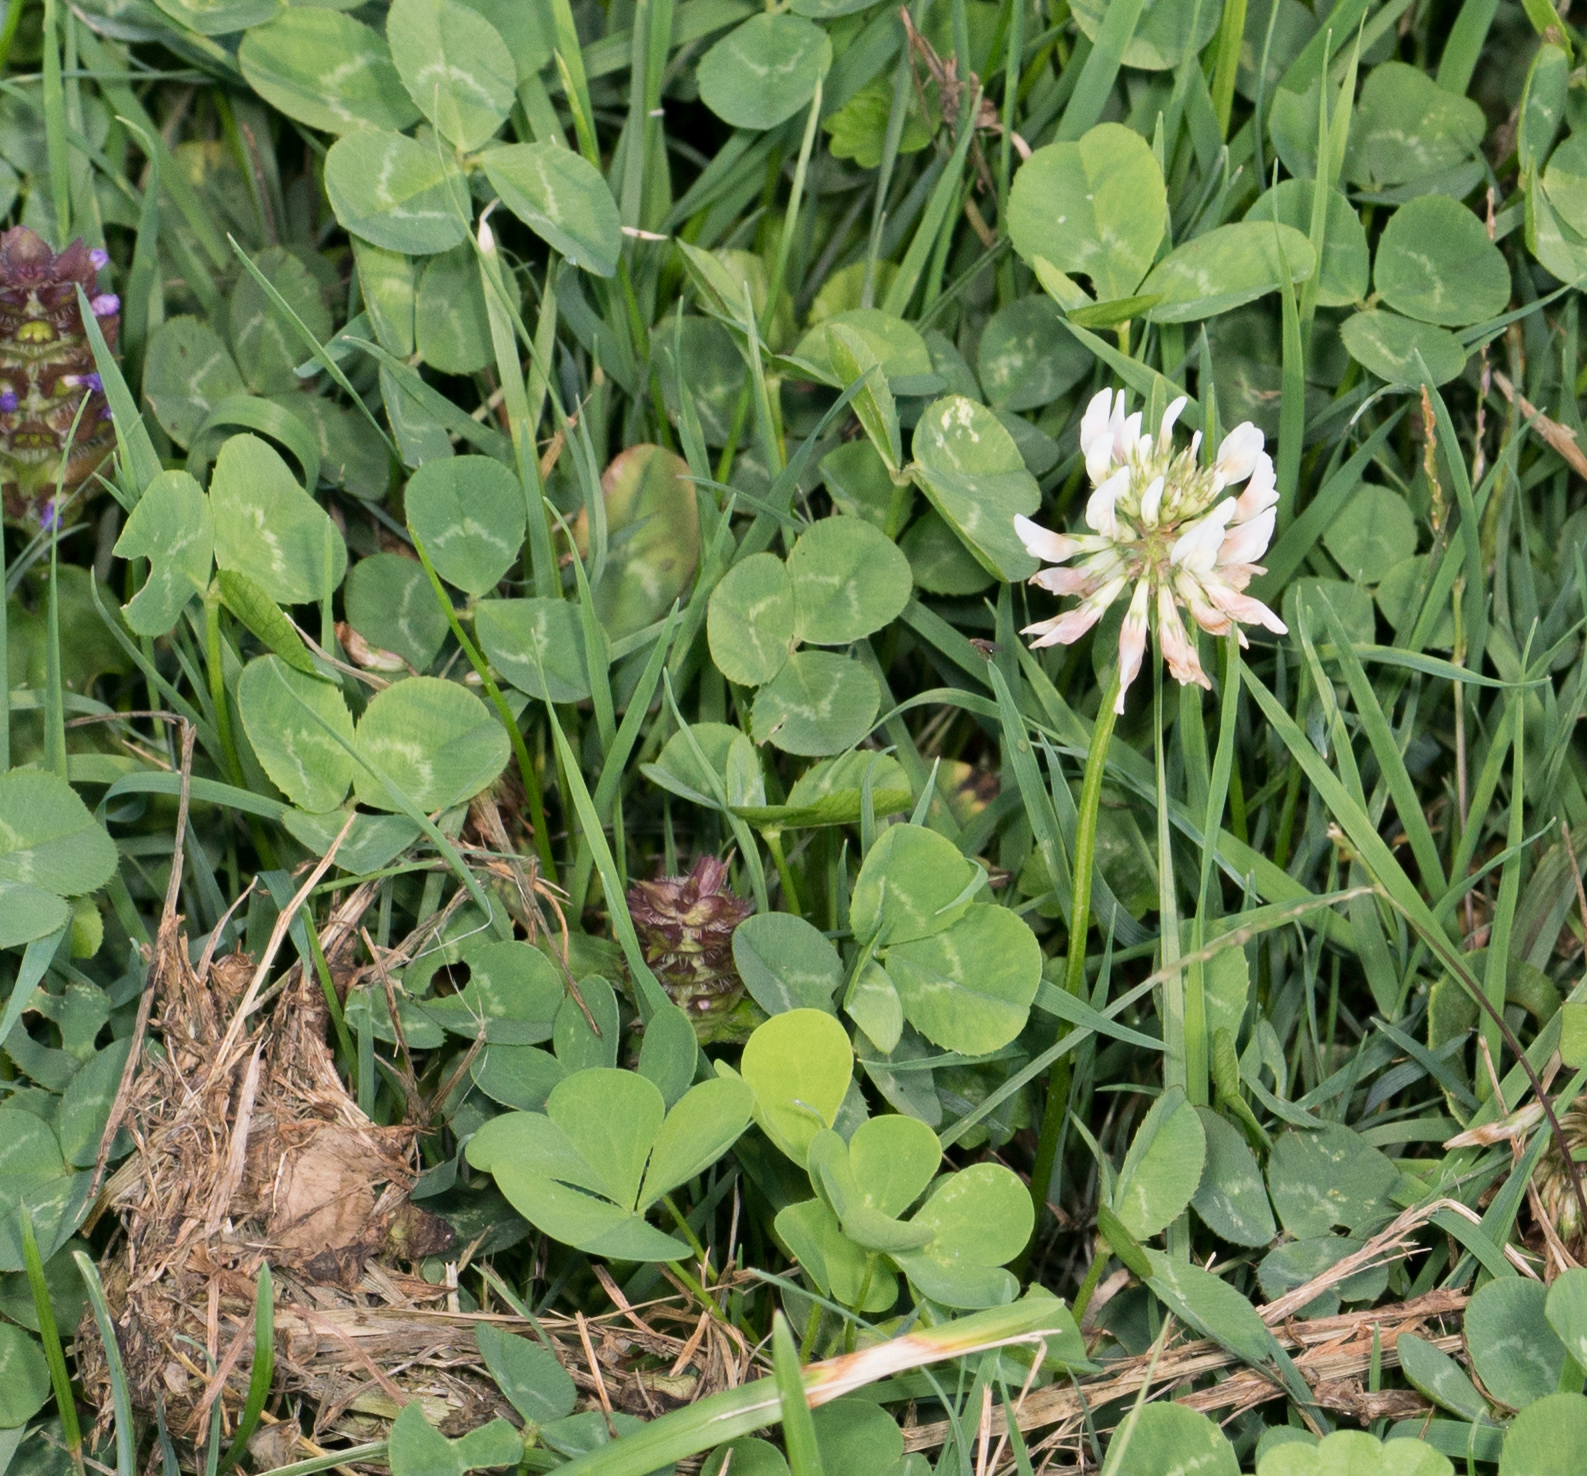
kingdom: Plantae
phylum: Tracheophyta
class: Magnoliopsida
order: Fabales
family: Fabaceae
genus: Trifolium
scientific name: Trifolium repens
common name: White clover
